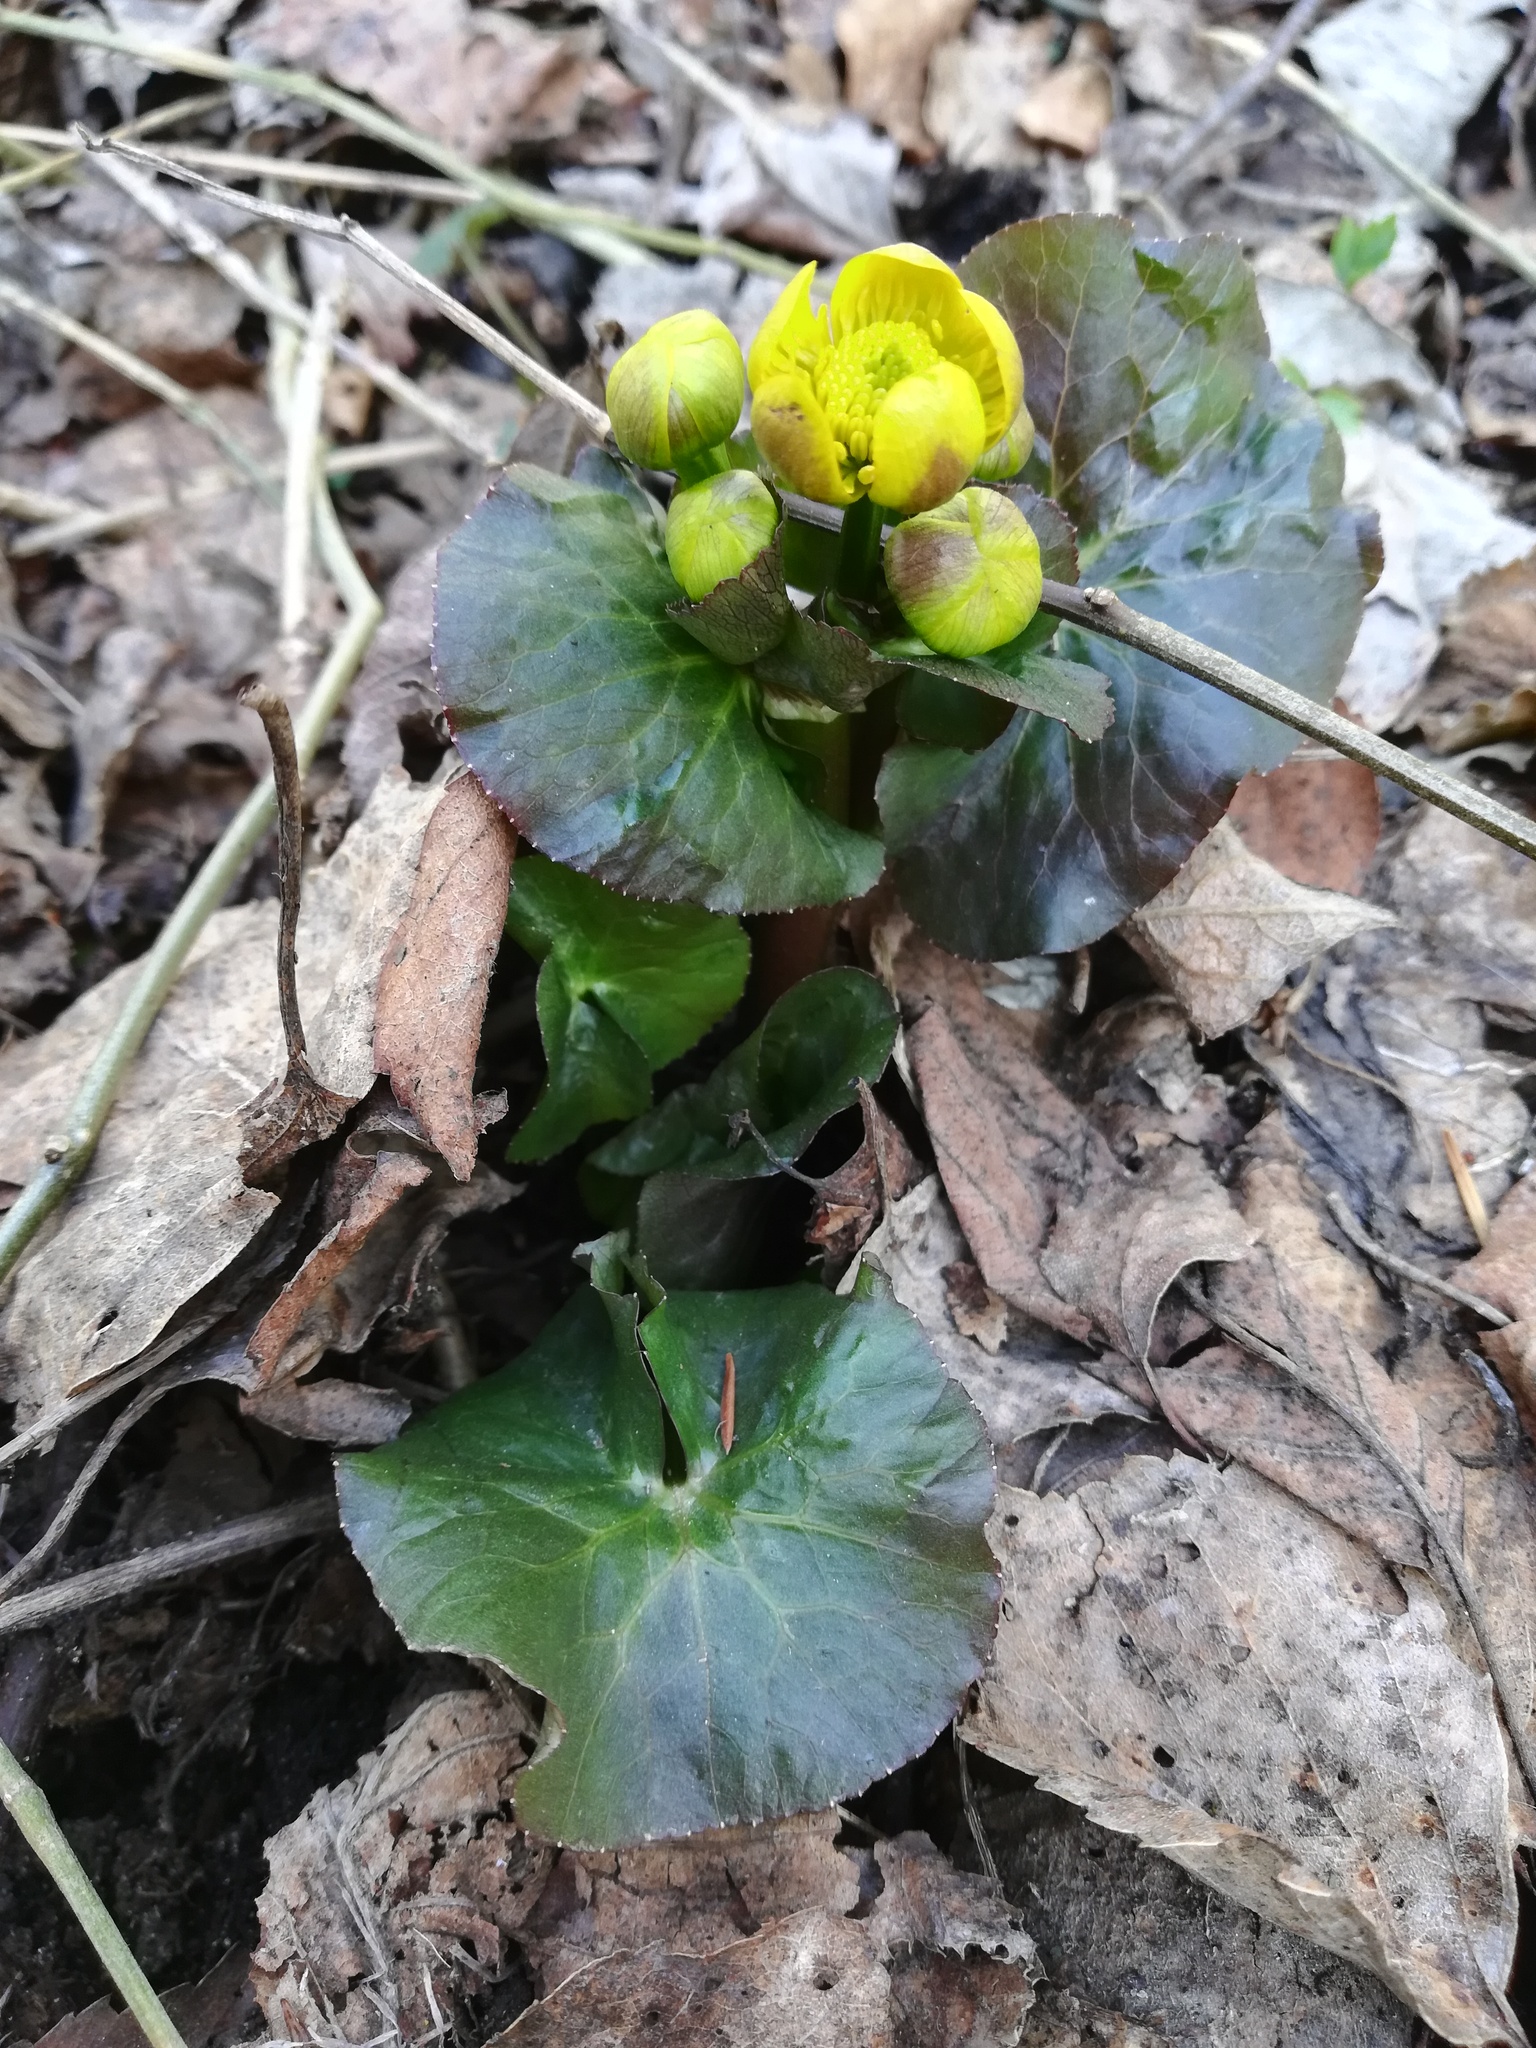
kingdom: Plantae
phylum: Tracheophyta
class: Magnoliopsida
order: Ranunculales
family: Ranunculaceae
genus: Caltha
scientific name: Caltha palustris
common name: Marsh marigold
